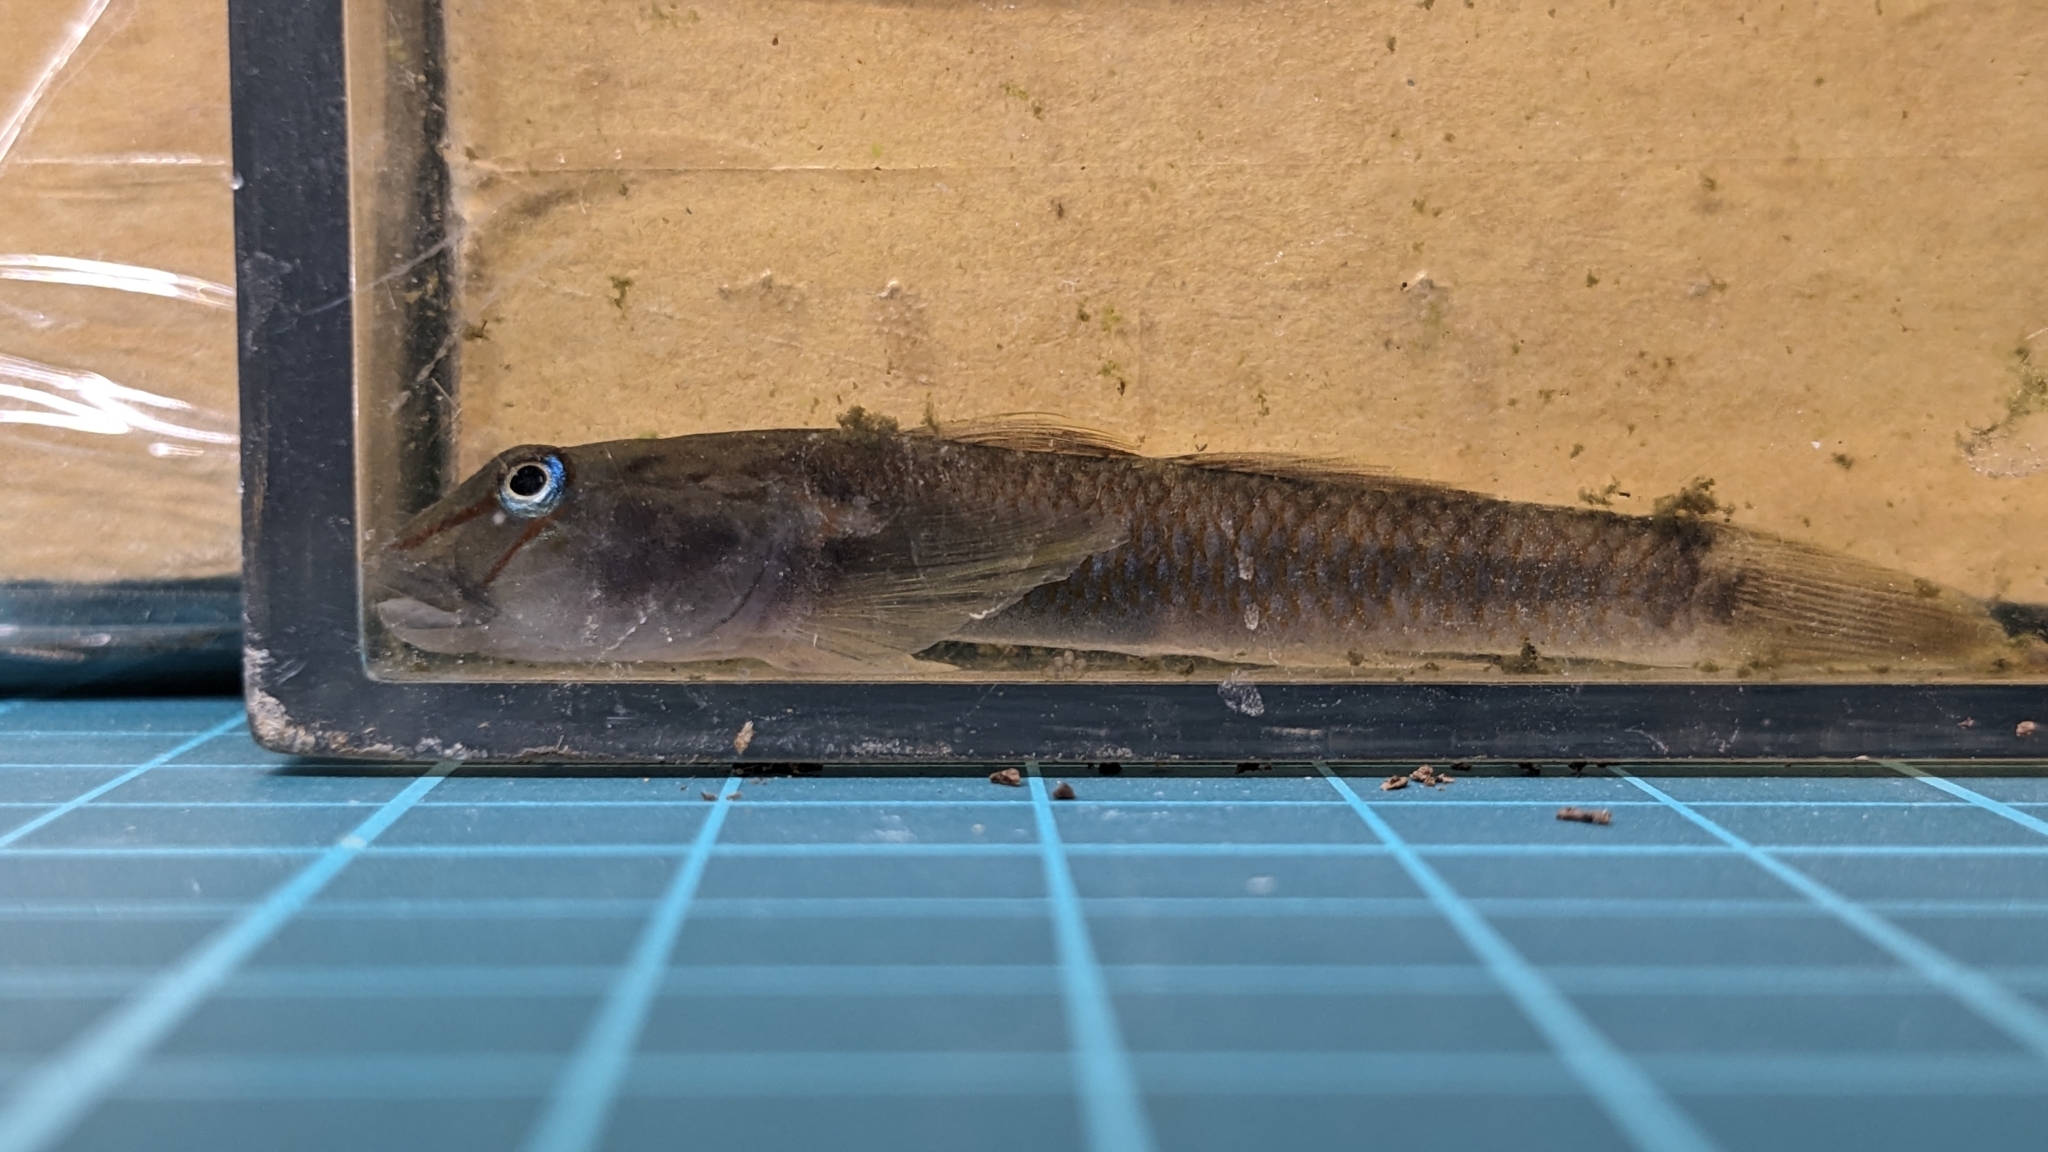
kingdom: Animalia
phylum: Chordata
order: Perciformes
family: Gobiidae
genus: Rhinogobius
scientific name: Rhinogobius candidianus
